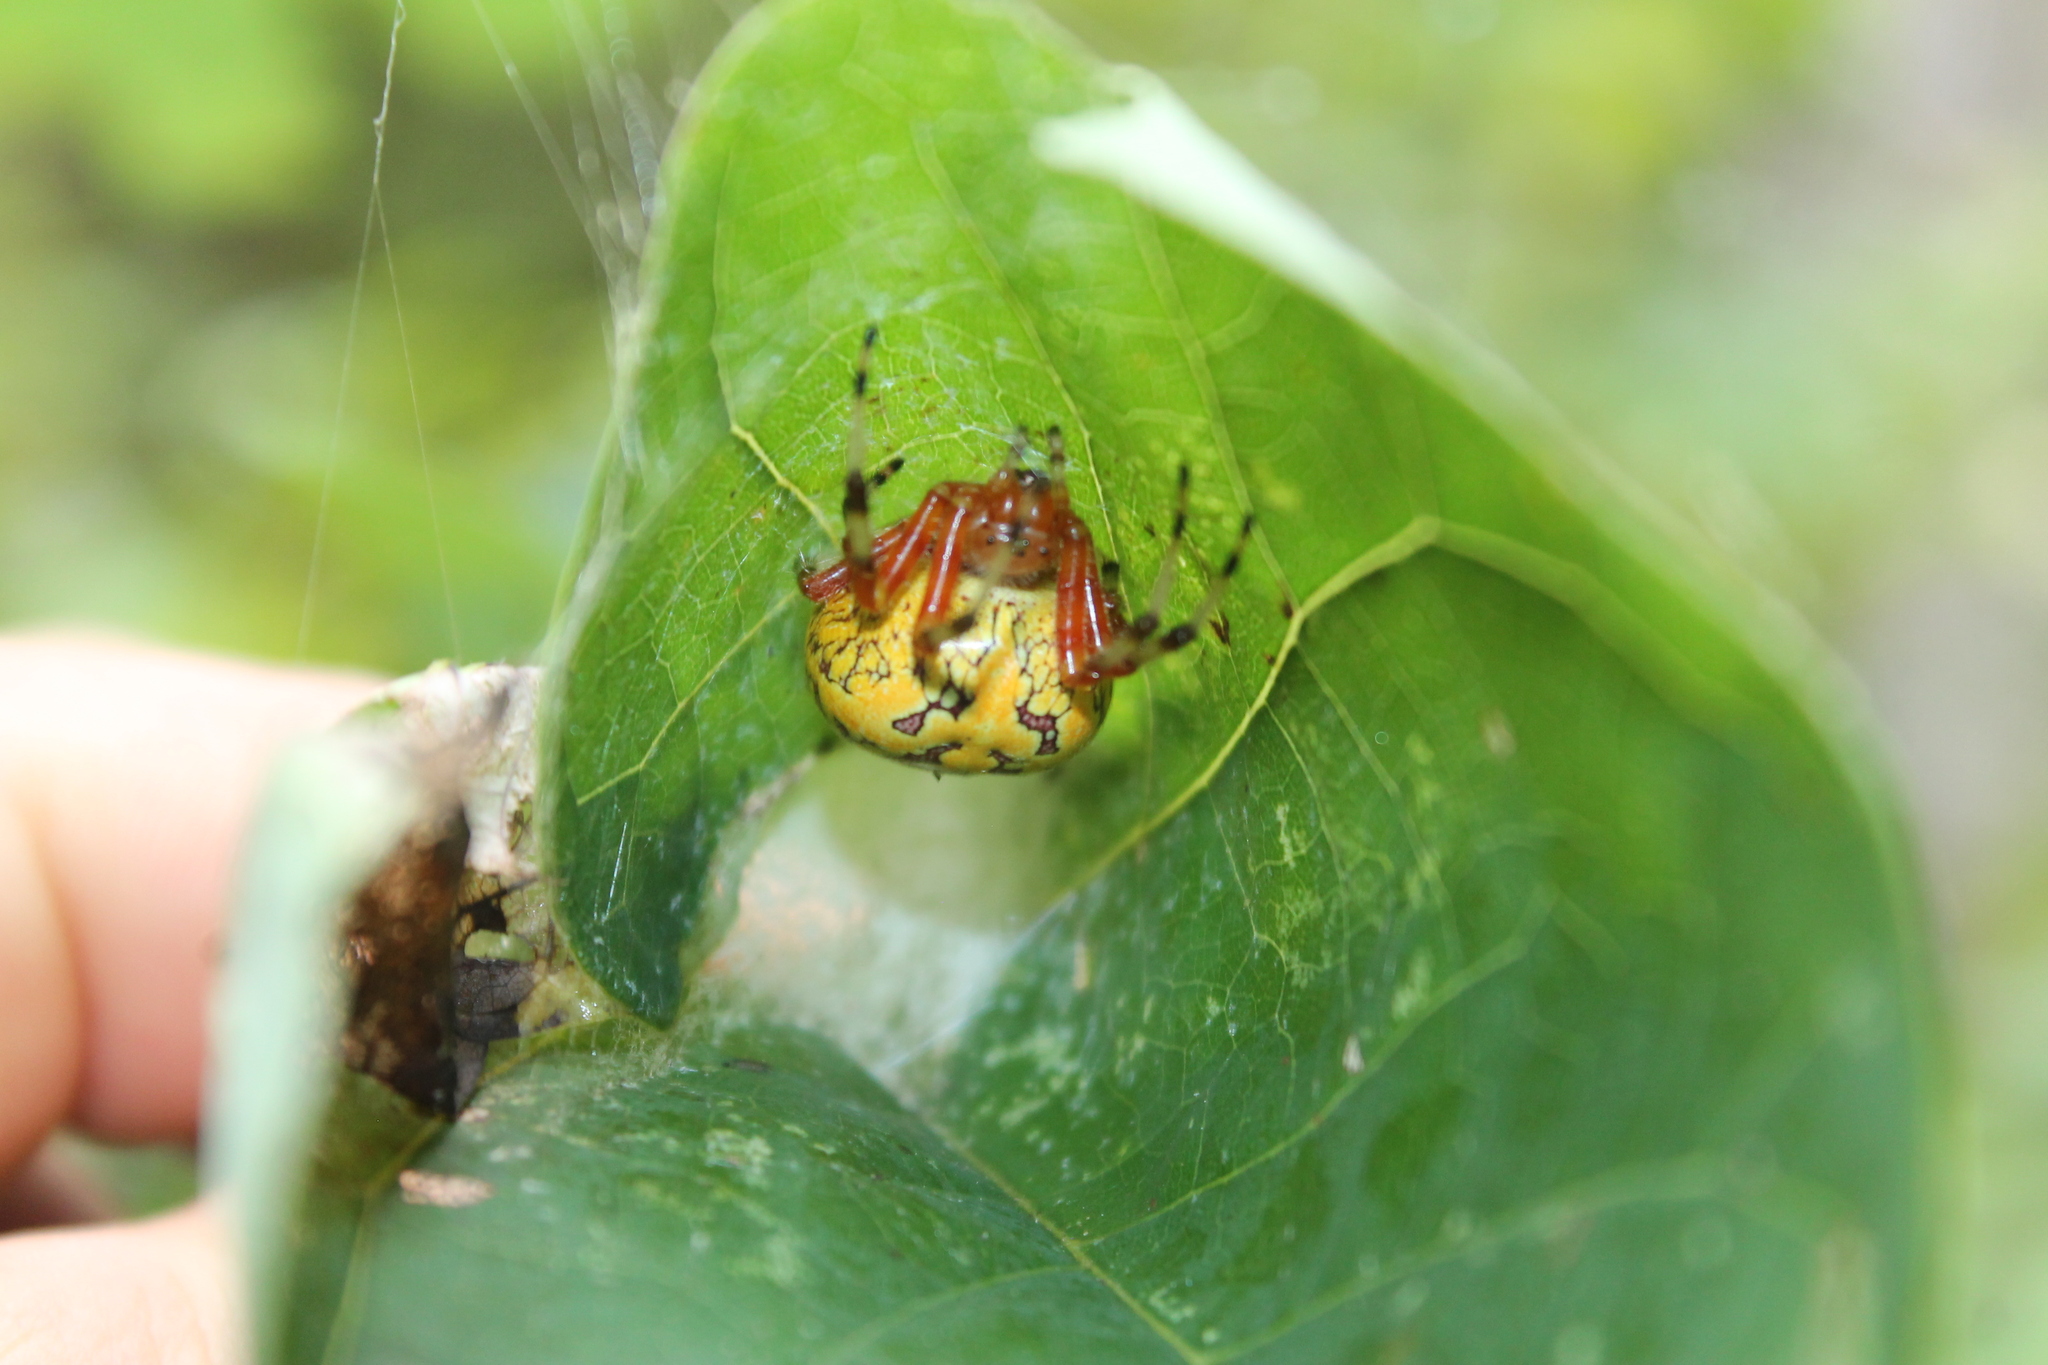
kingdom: Animalia
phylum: Arthropoda
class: Arachnida
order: Araneae
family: Araneidae
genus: Araneus
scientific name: Araneus marmoreus
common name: Marbled orbweaver
